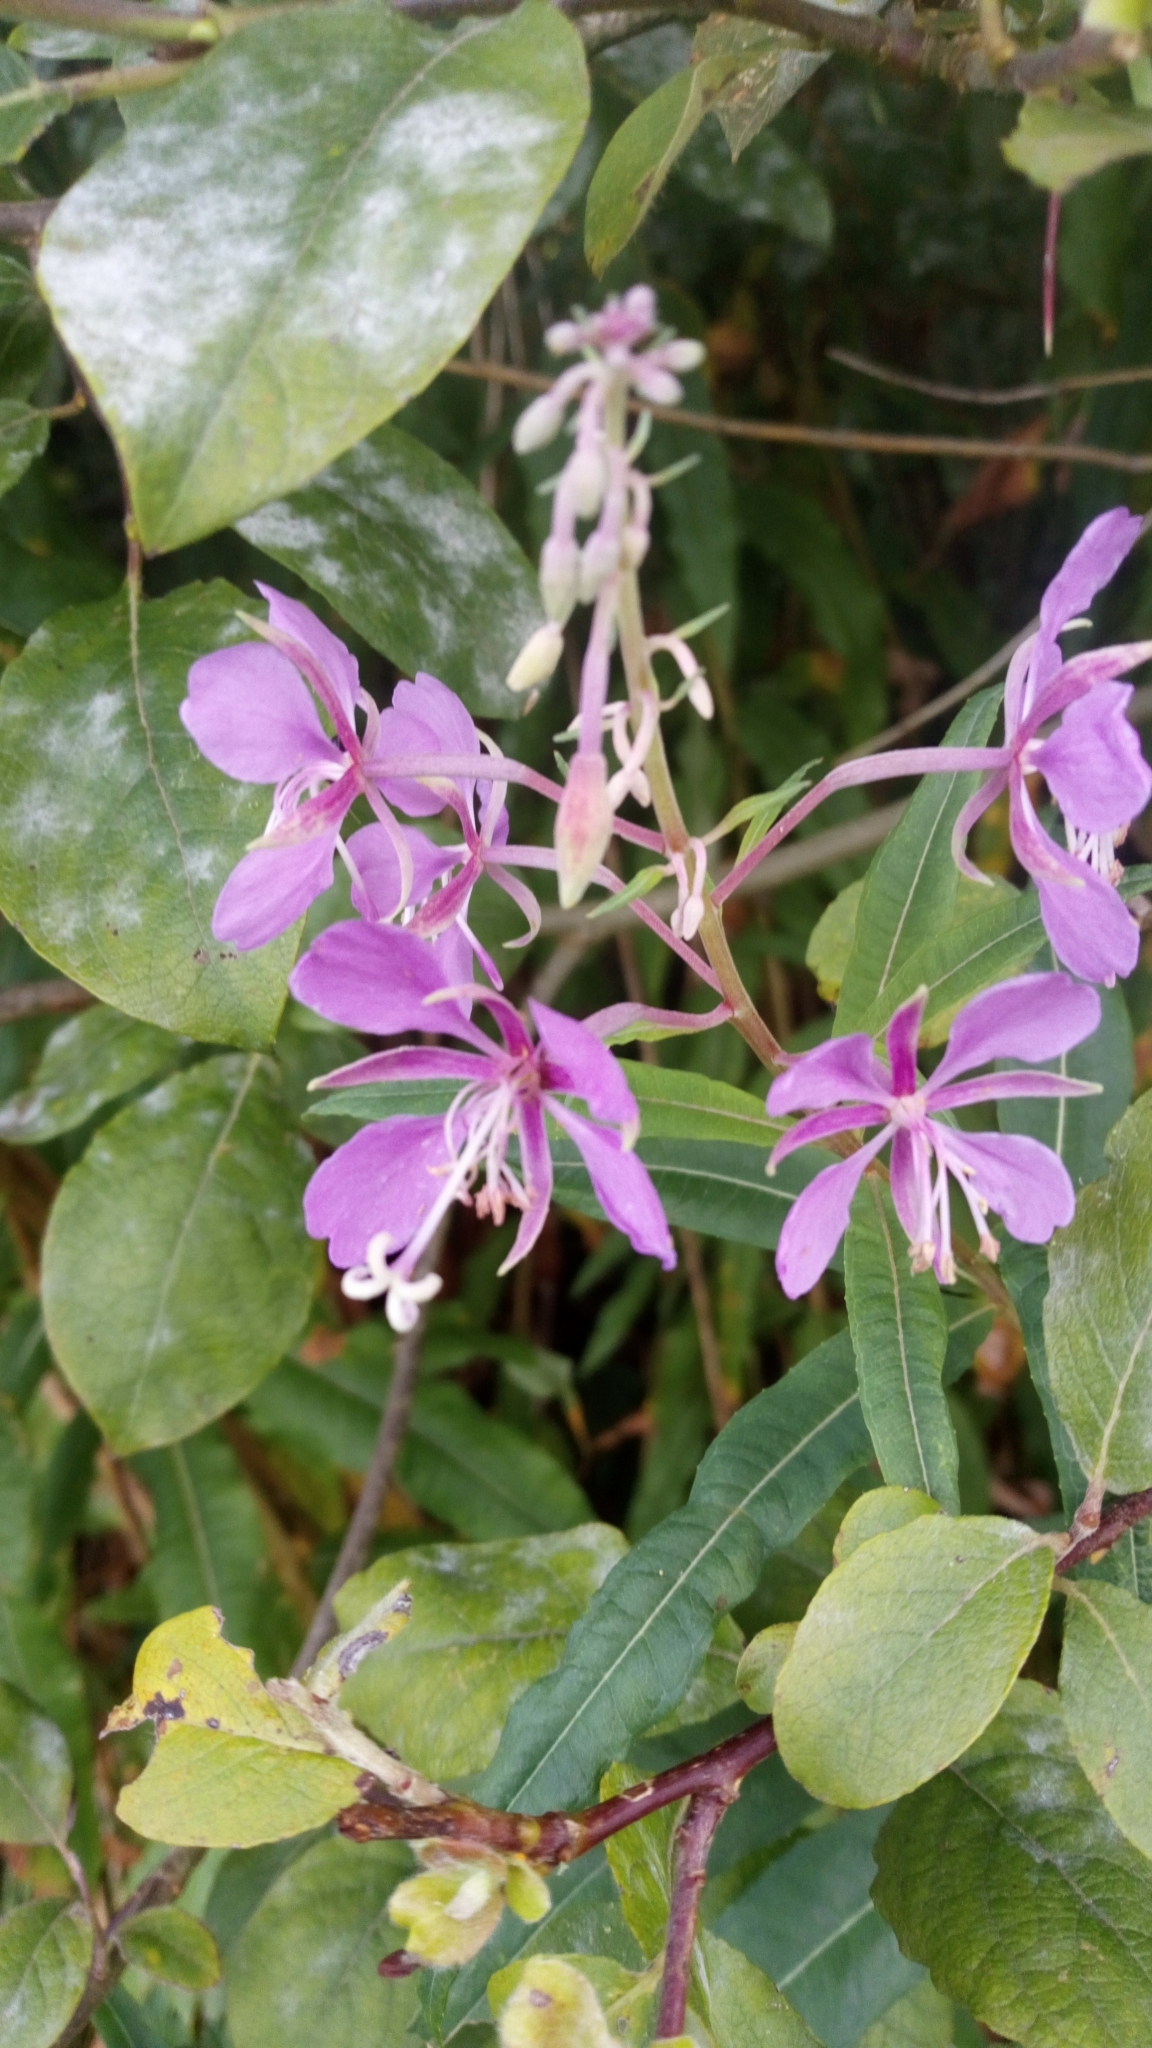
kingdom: Plantae
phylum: Tracheophyta
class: Magnoliopsida
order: Myrtales
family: Onagraceae
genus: Chamaenerion
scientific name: Chamaenerion angustifolium
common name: Fireweed
